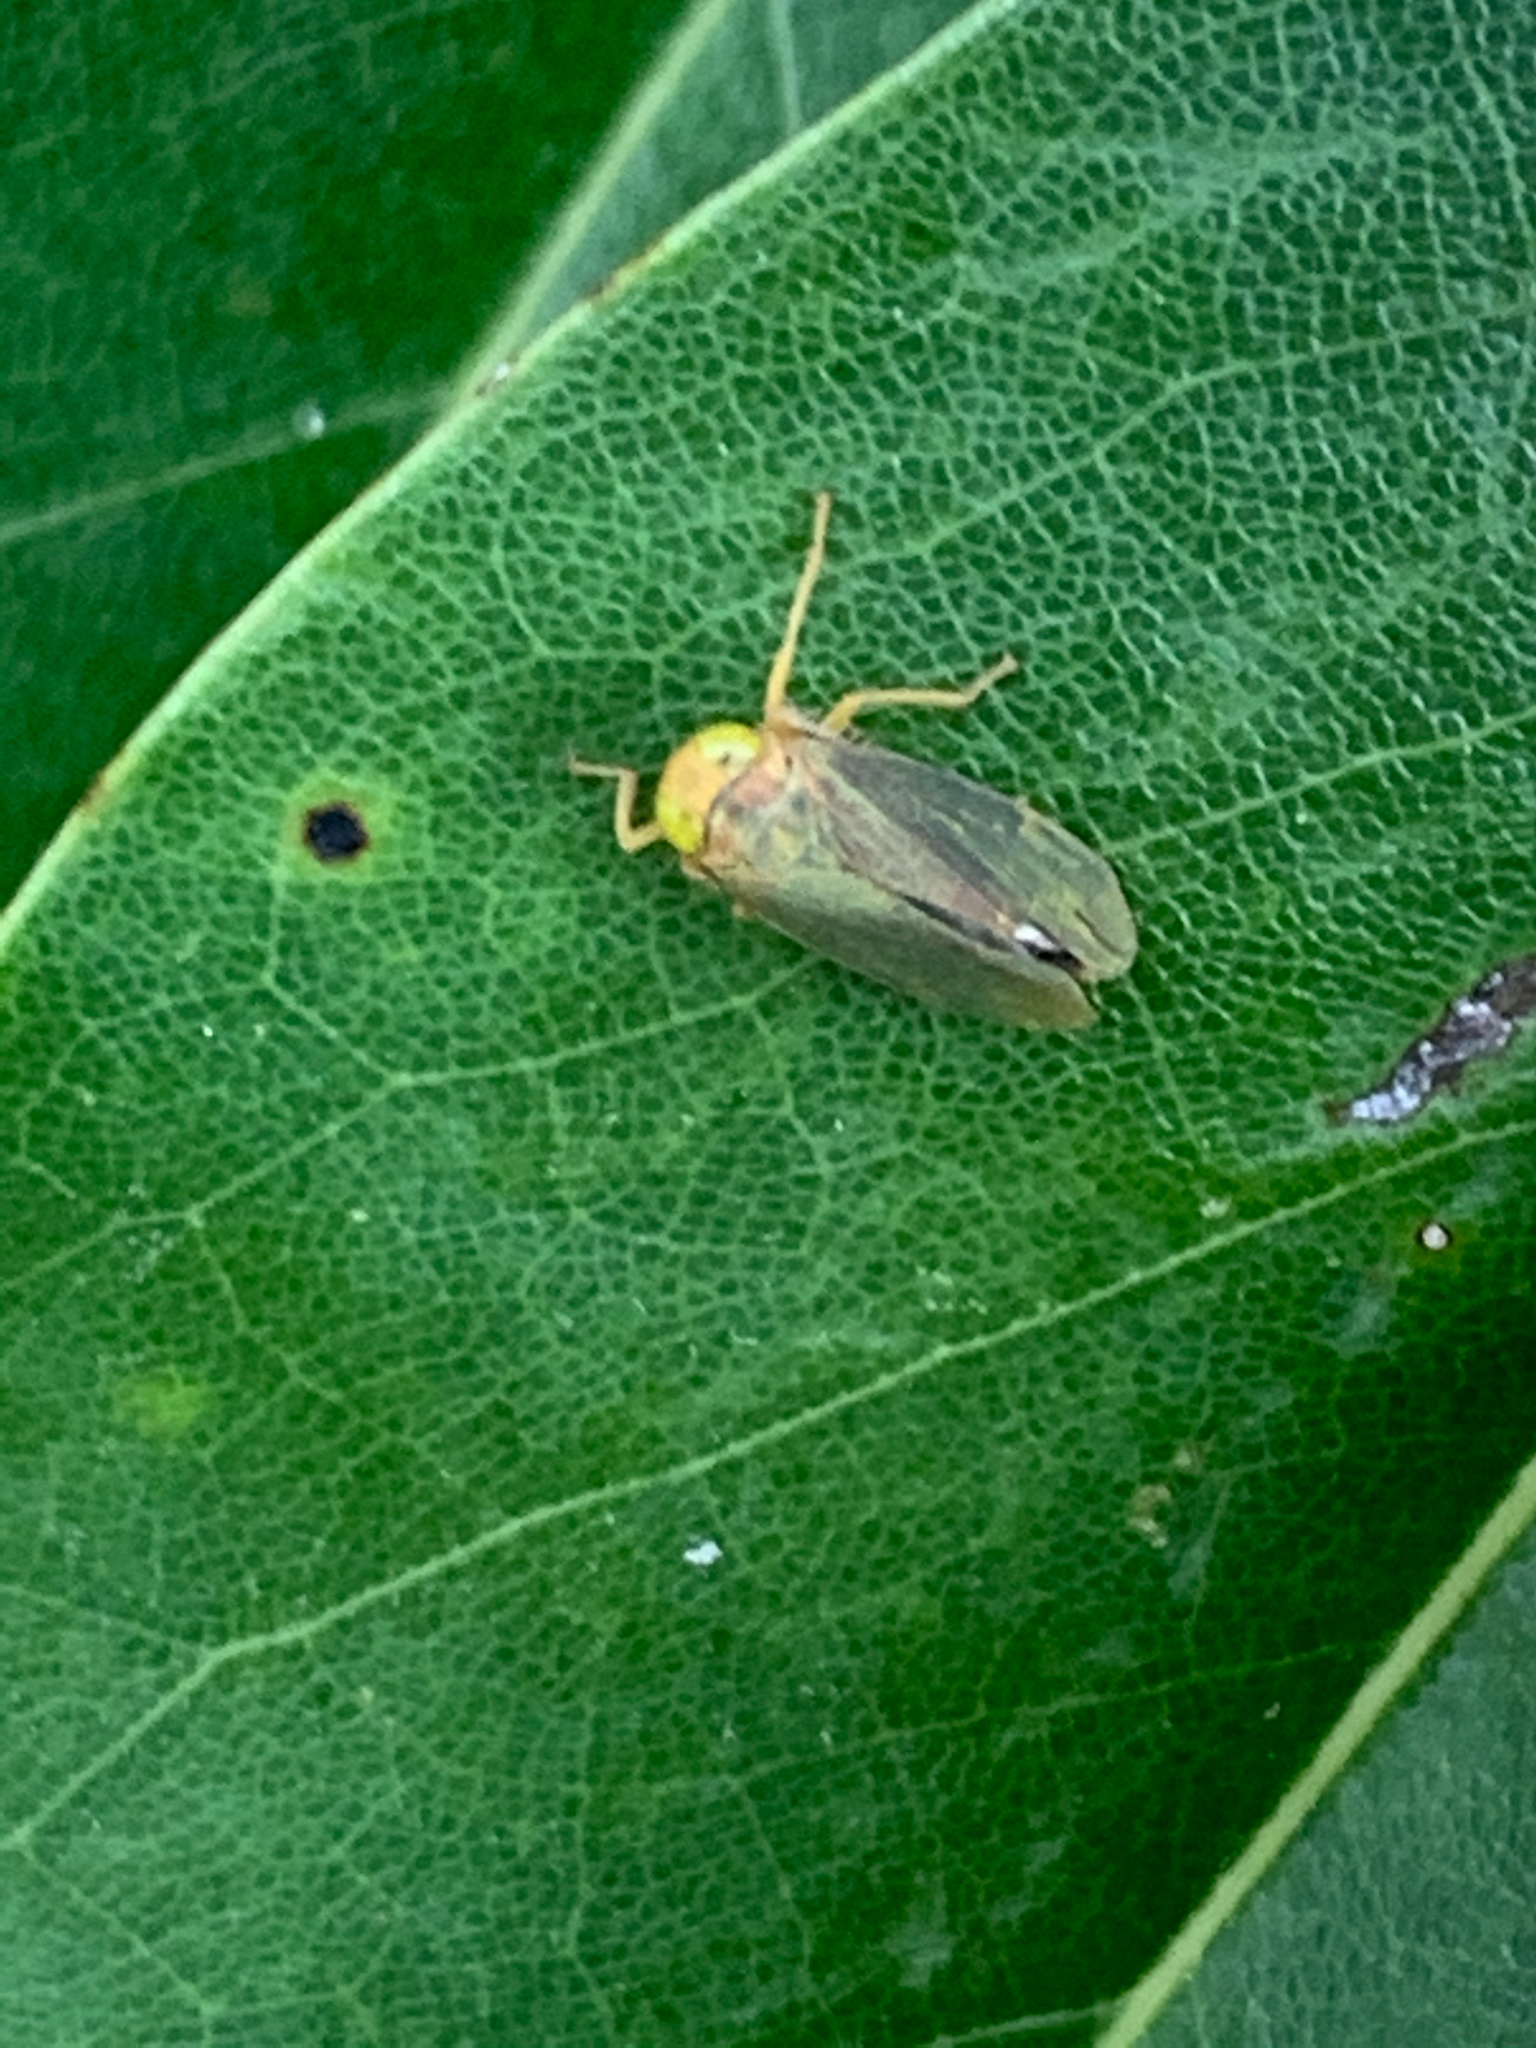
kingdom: Animalia
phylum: Arthropoda
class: Insecta
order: Hemiptera
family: Cicadellidae
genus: Jikradia
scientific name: Jikradia olitoria
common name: Coppery leafhopper
